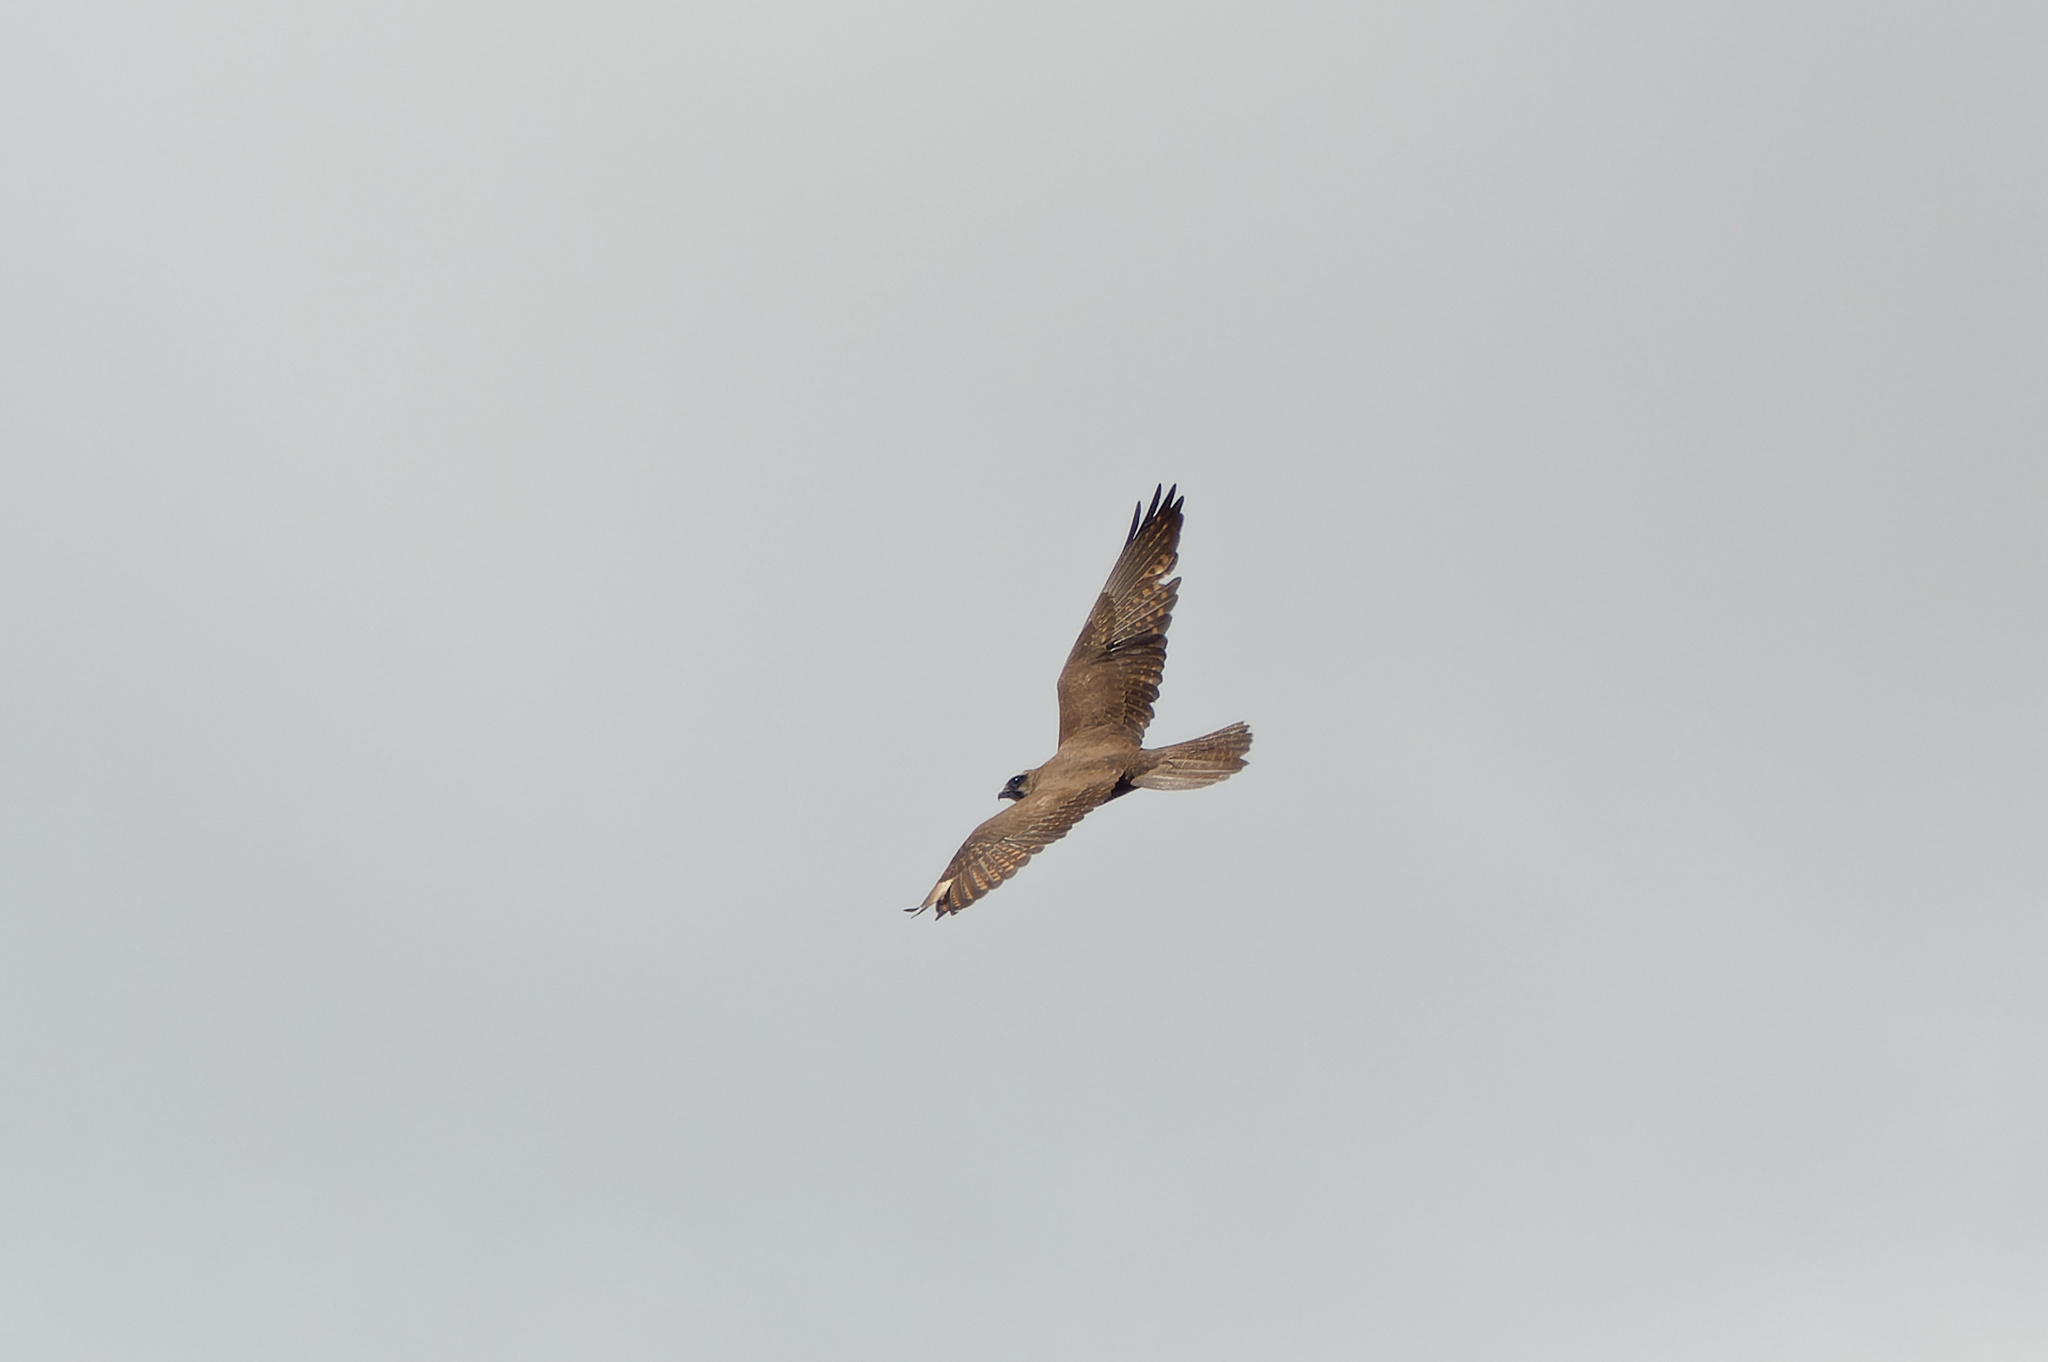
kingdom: Animalia
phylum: Chordata
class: Aves
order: Falconiformes
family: Falconidae
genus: Falco
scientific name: Falco berigora
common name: Brown falcon
